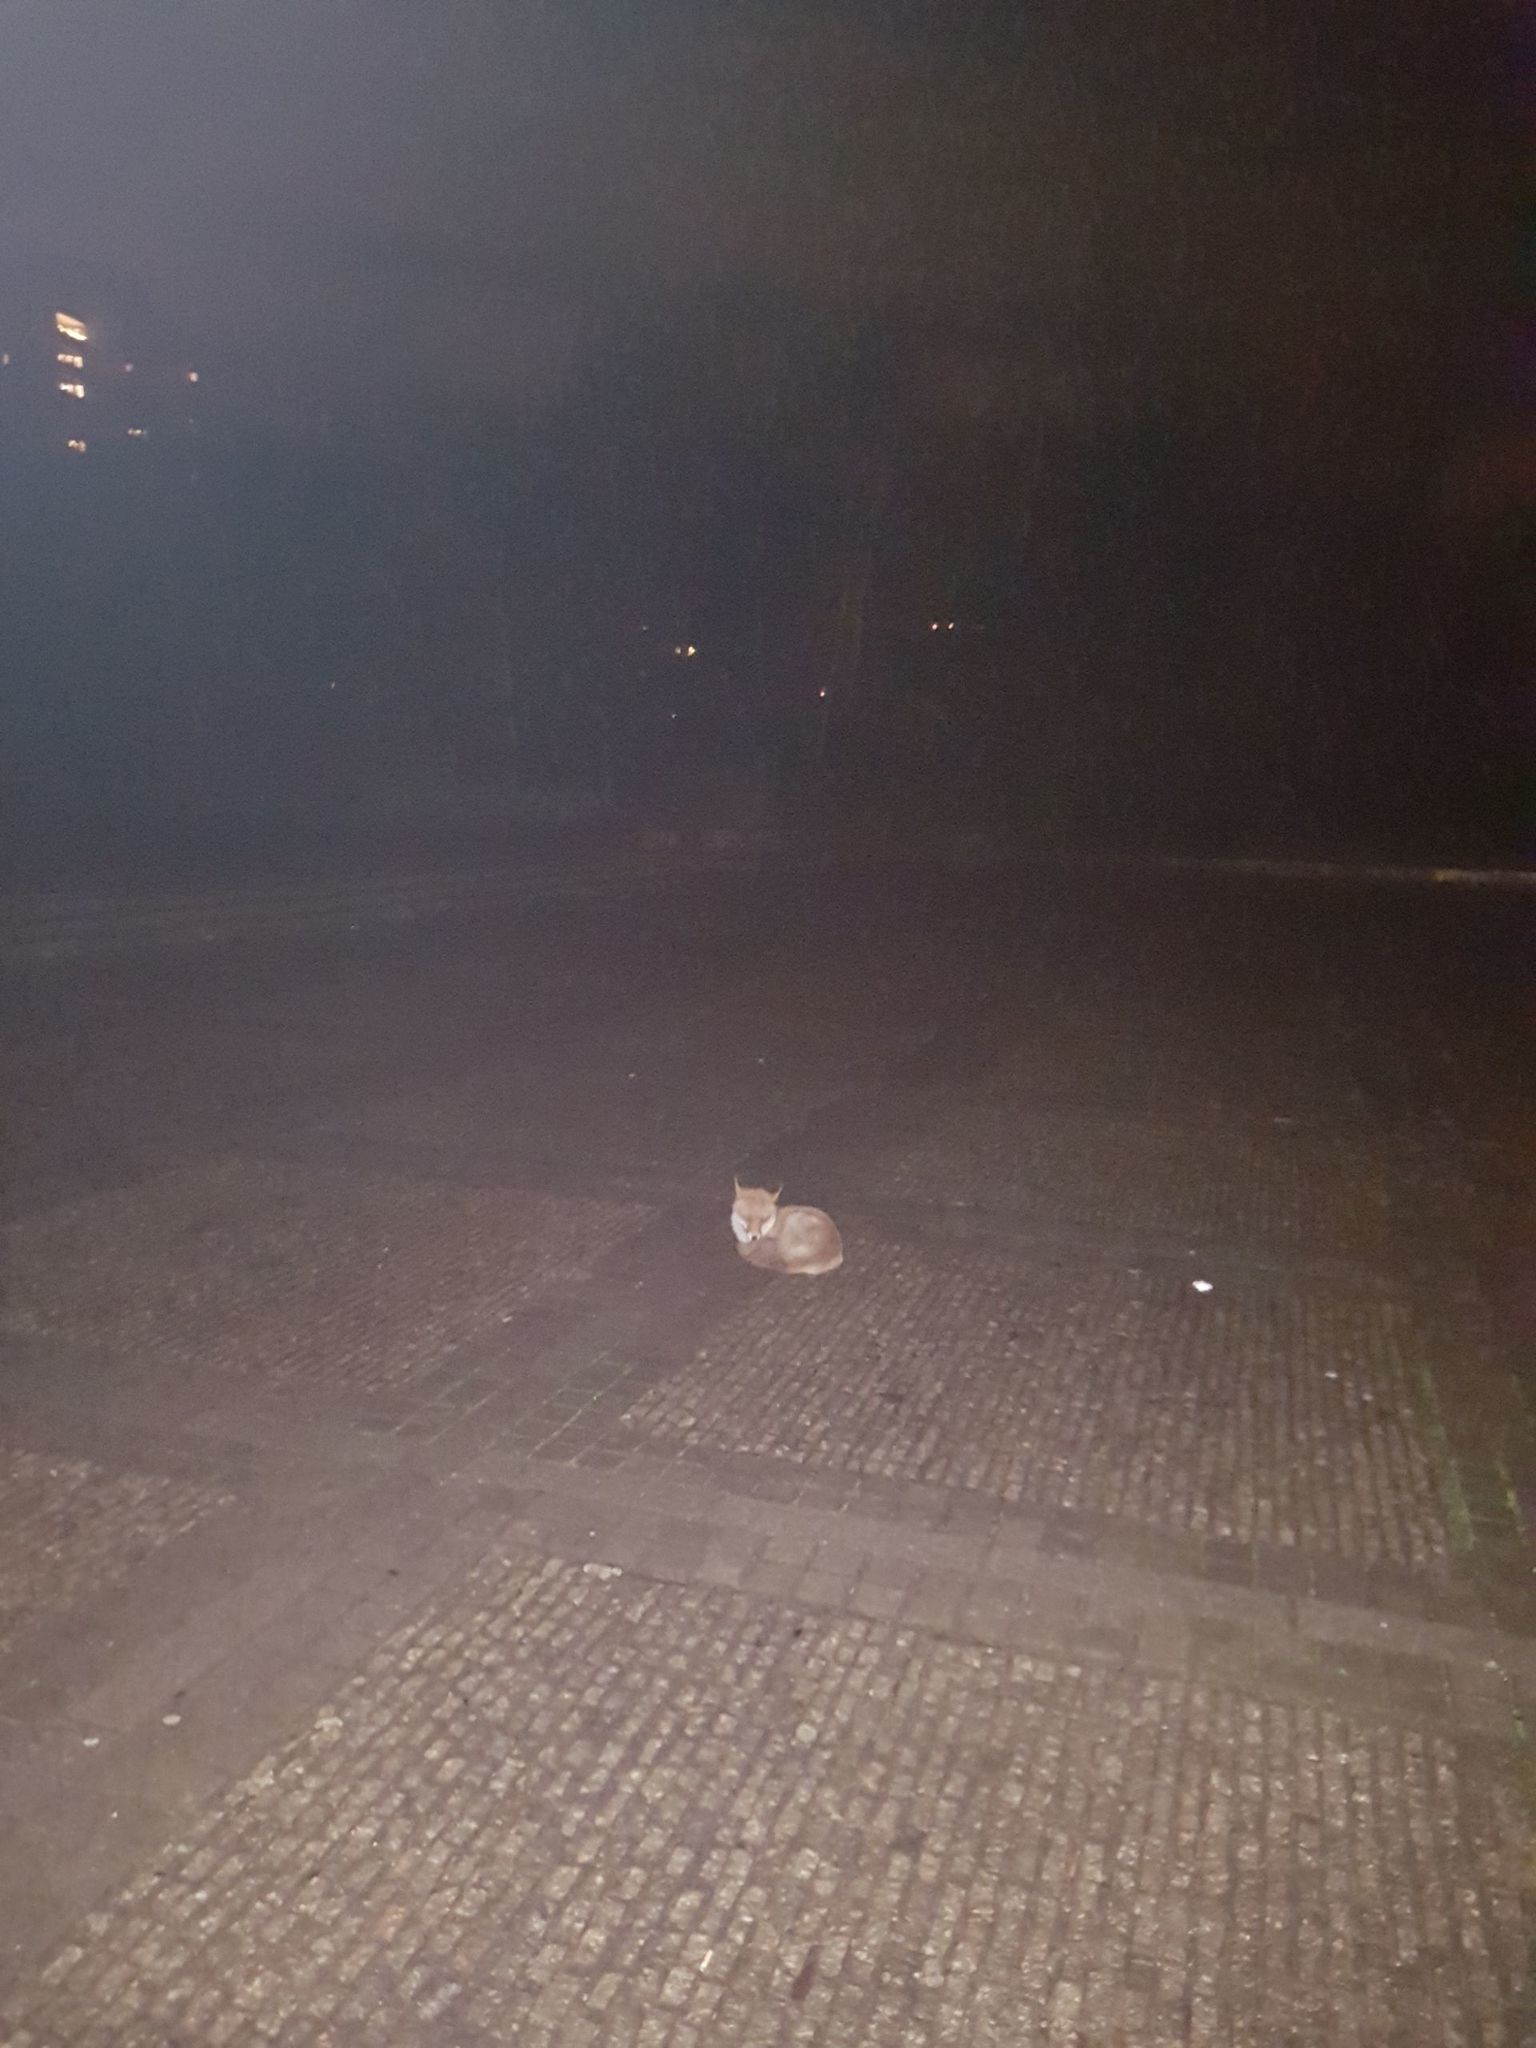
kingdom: Animalia
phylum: Chordata
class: Mammalia
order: Carnivora
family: Canidae
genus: Vulpes
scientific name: Vulpes vulpes
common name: Red fox
